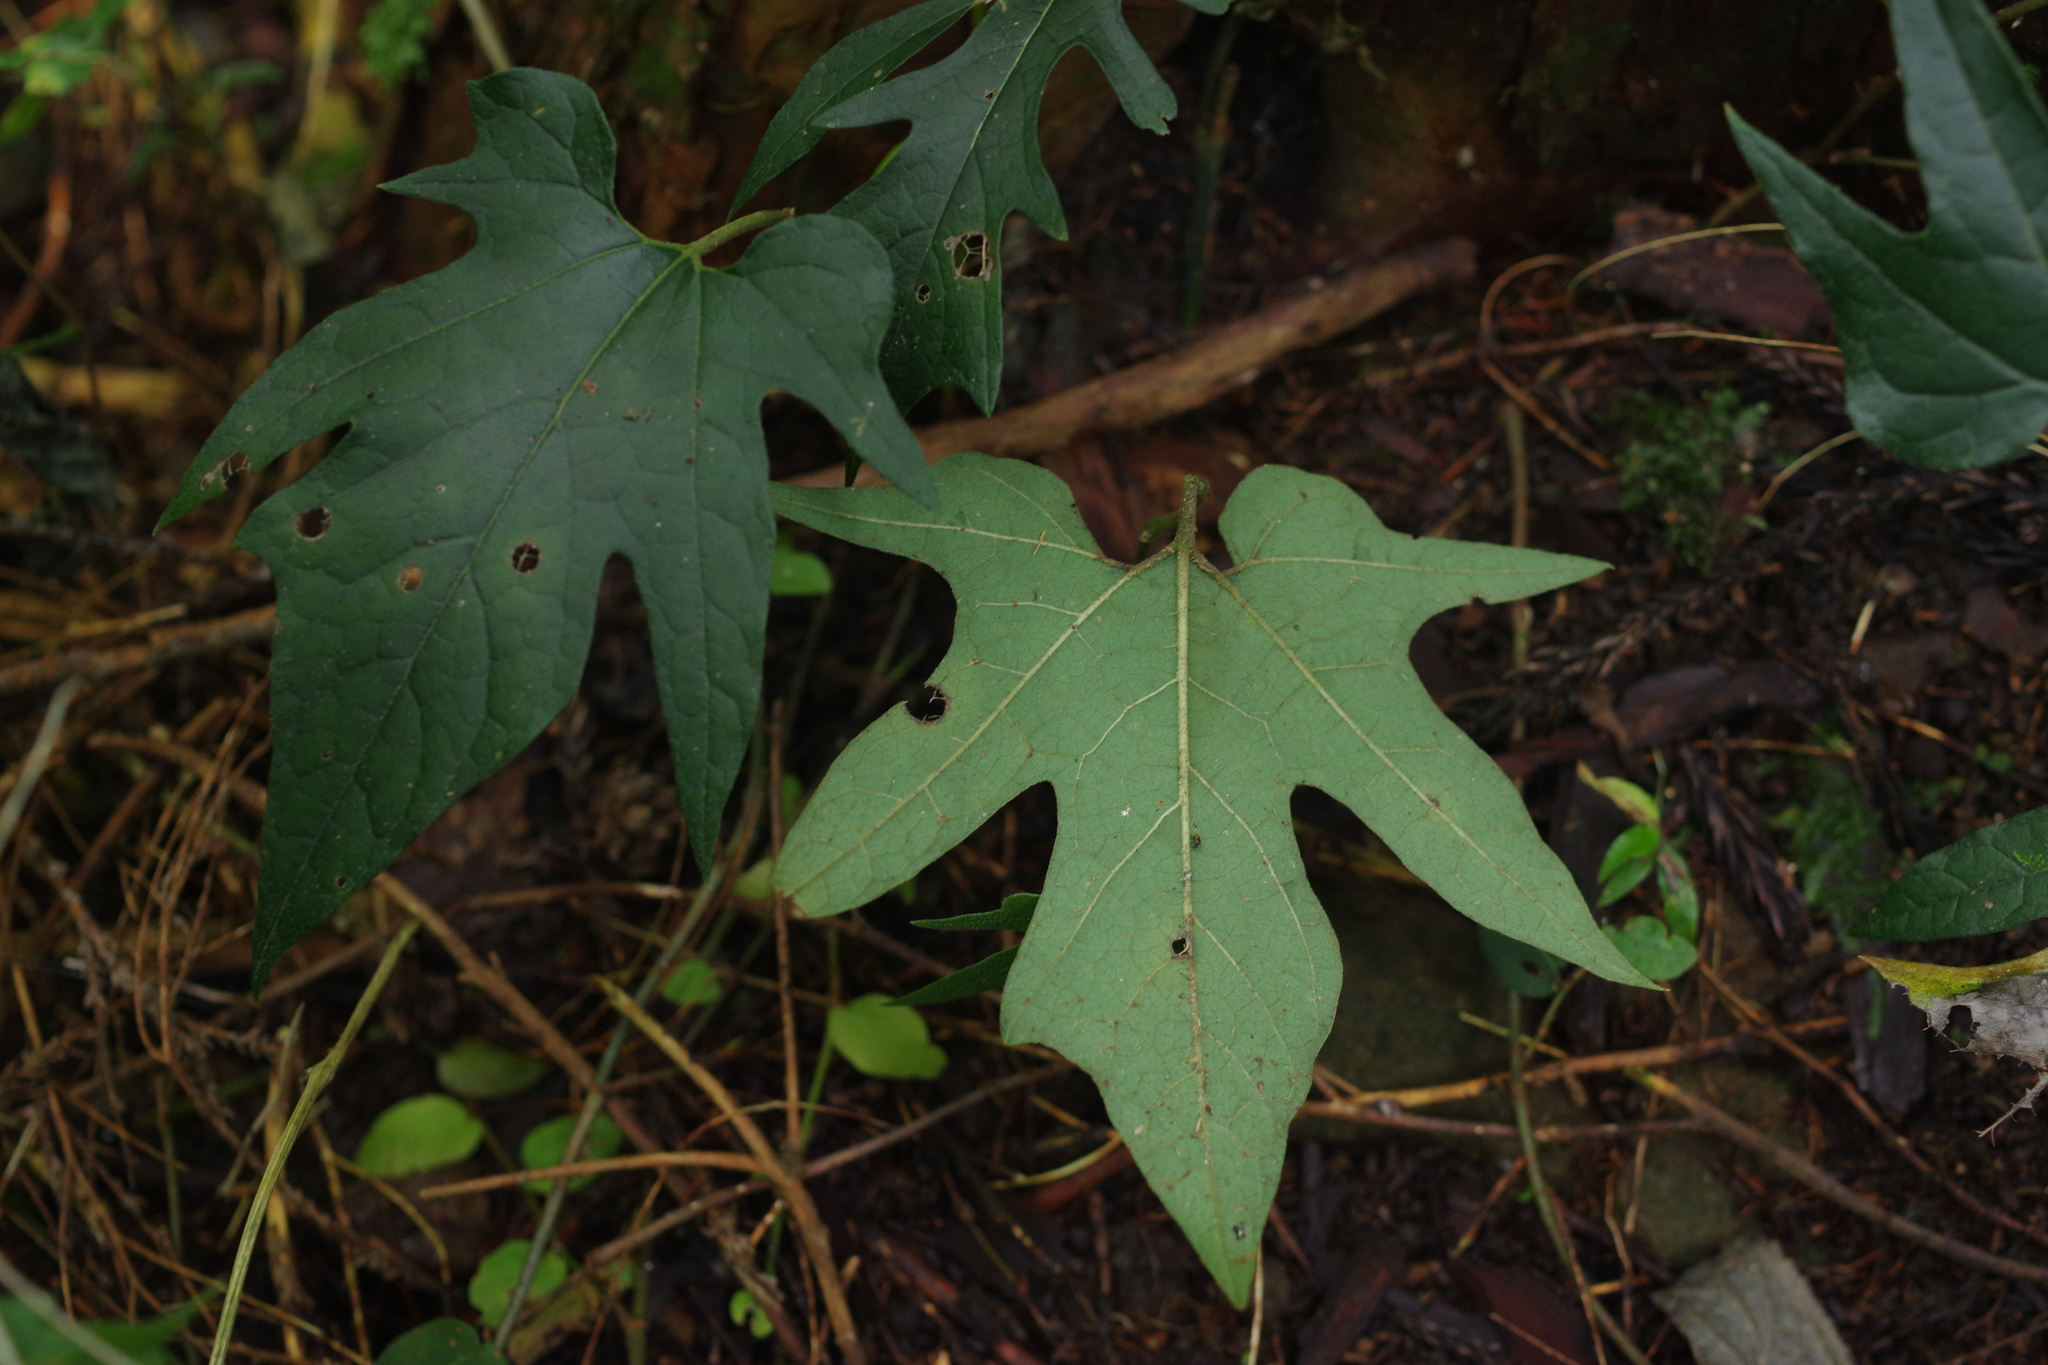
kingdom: Plantae
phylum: Tracheophyta
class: Magnoliopsida
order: Piperales
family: Aristolochiaceae
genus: Isotrema
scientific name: Isotrema cucurbitifolium
